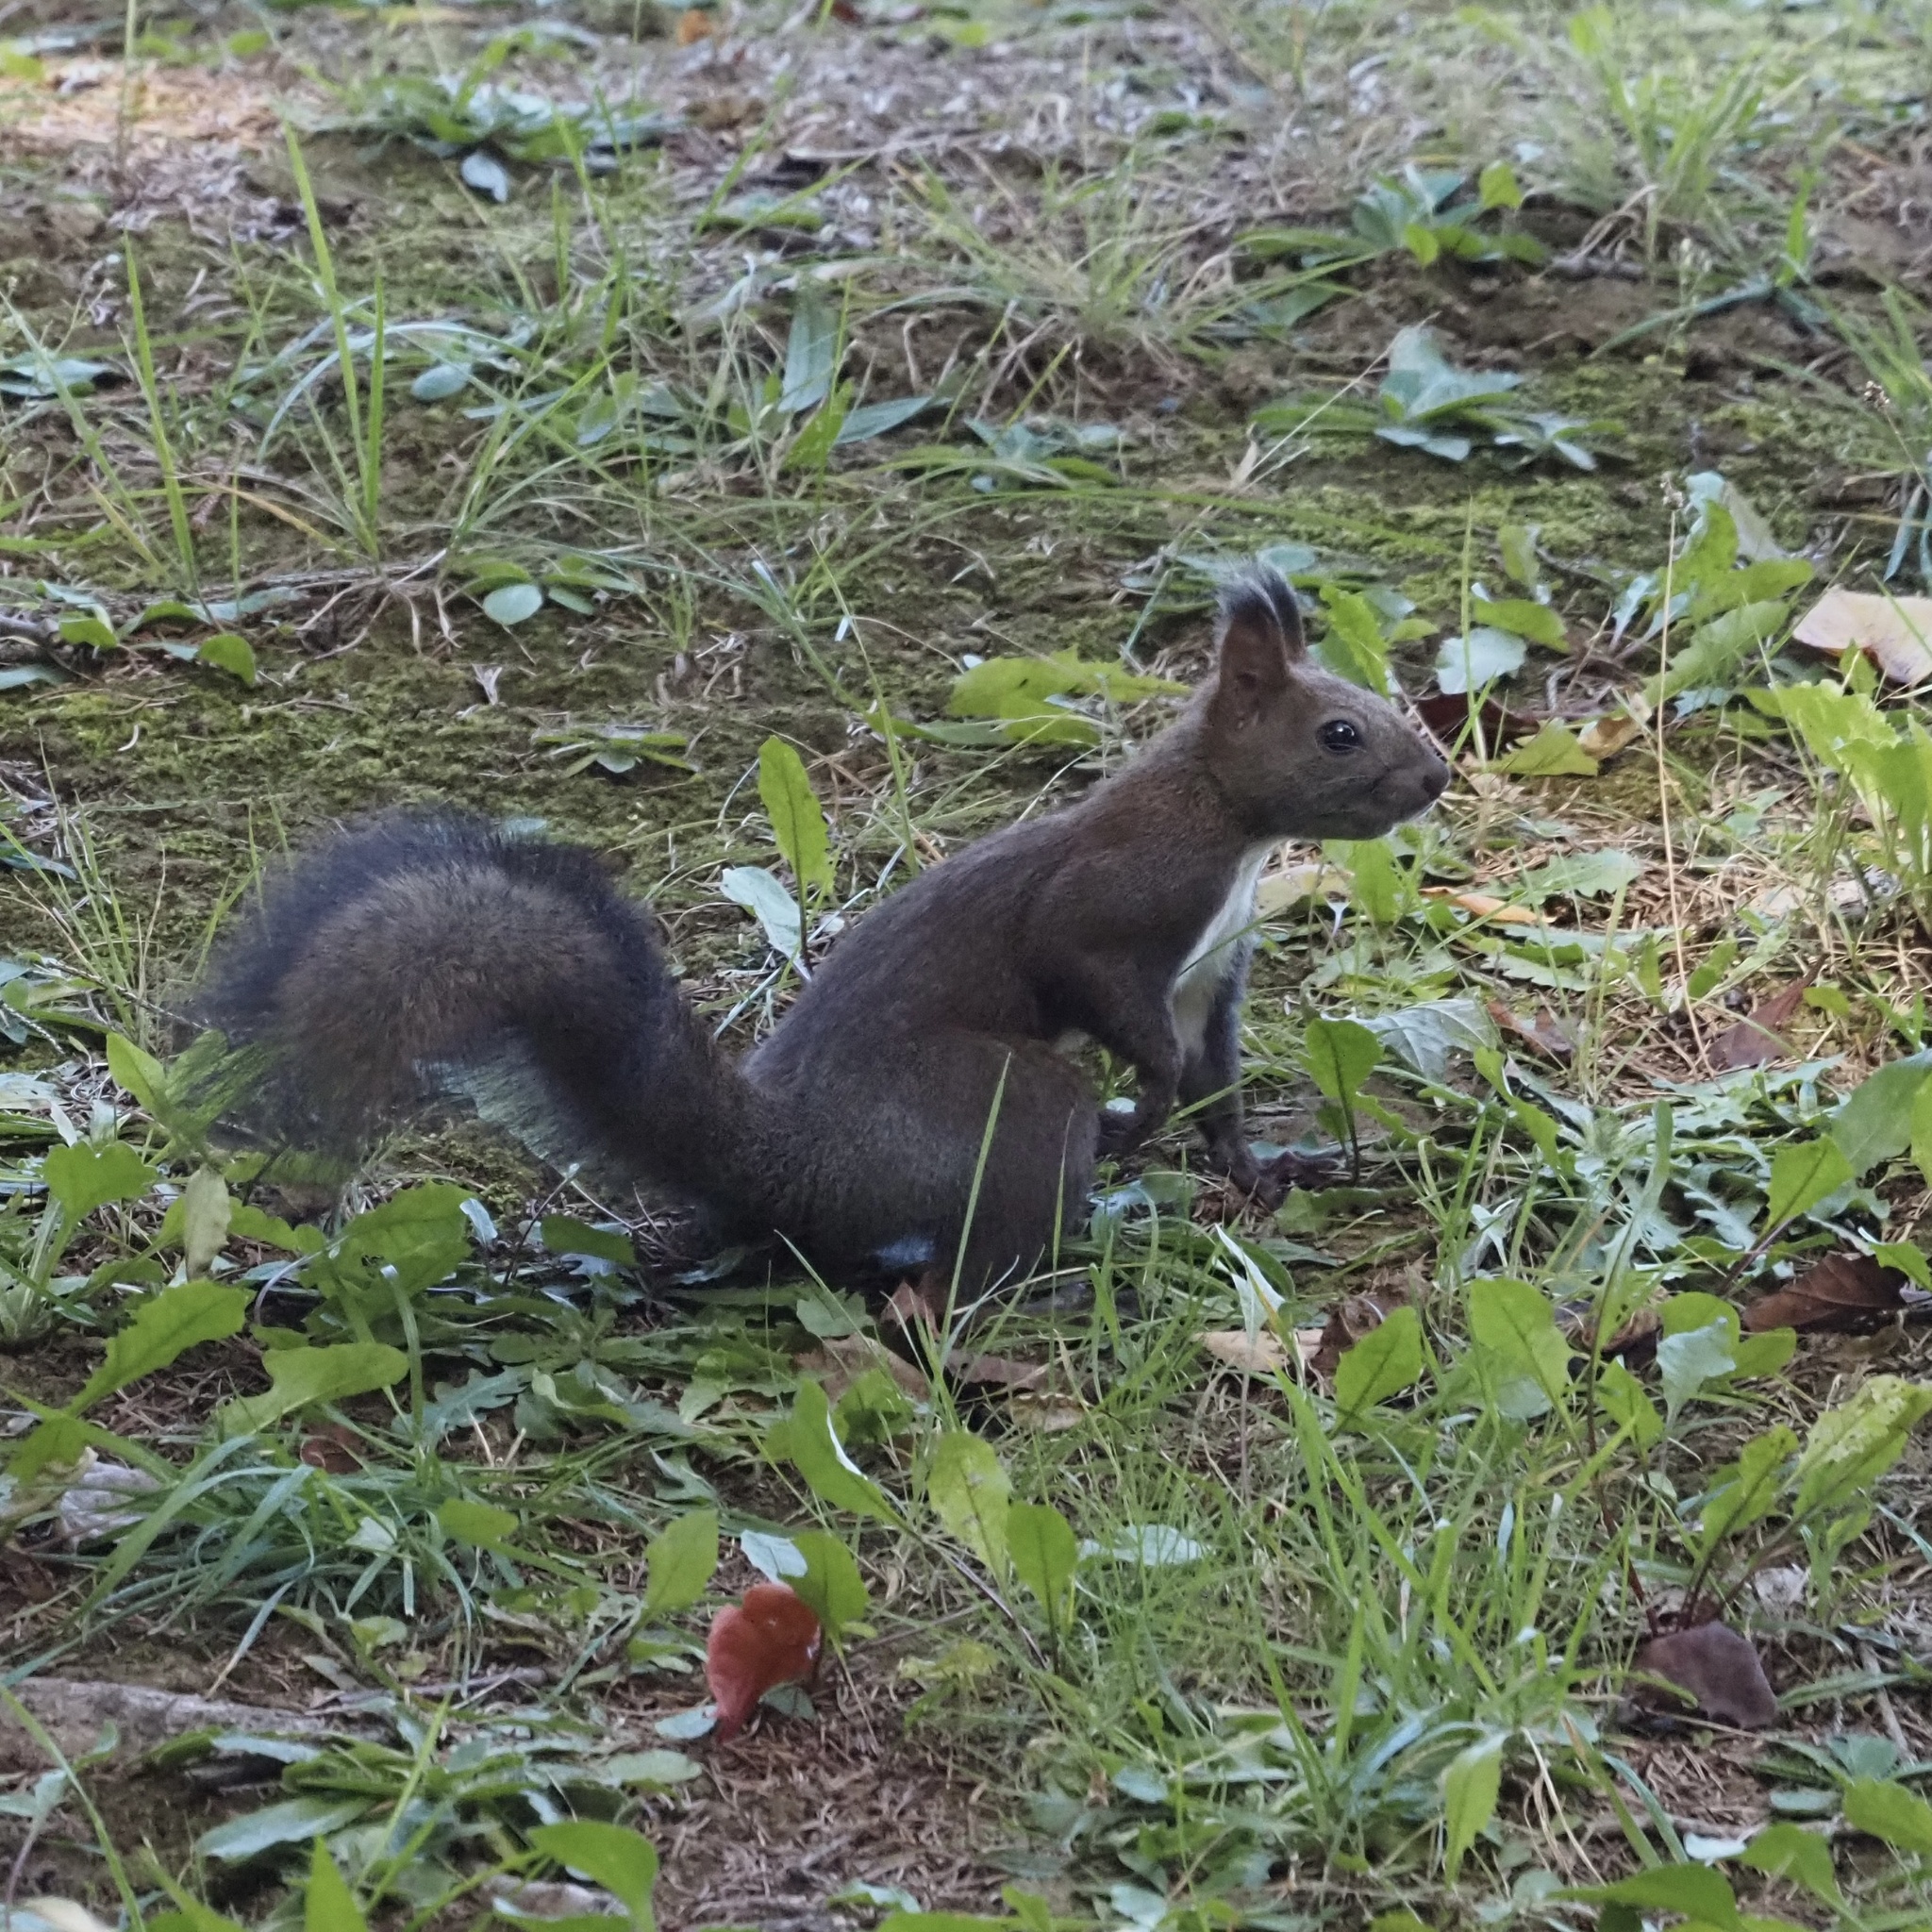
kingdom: Animalia
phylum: Chordata
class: Mammalia
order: Rodentia
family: Sciuridae
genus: Sciurus
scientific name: Sciurus vulgaris
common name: Eurasian red squirrel
